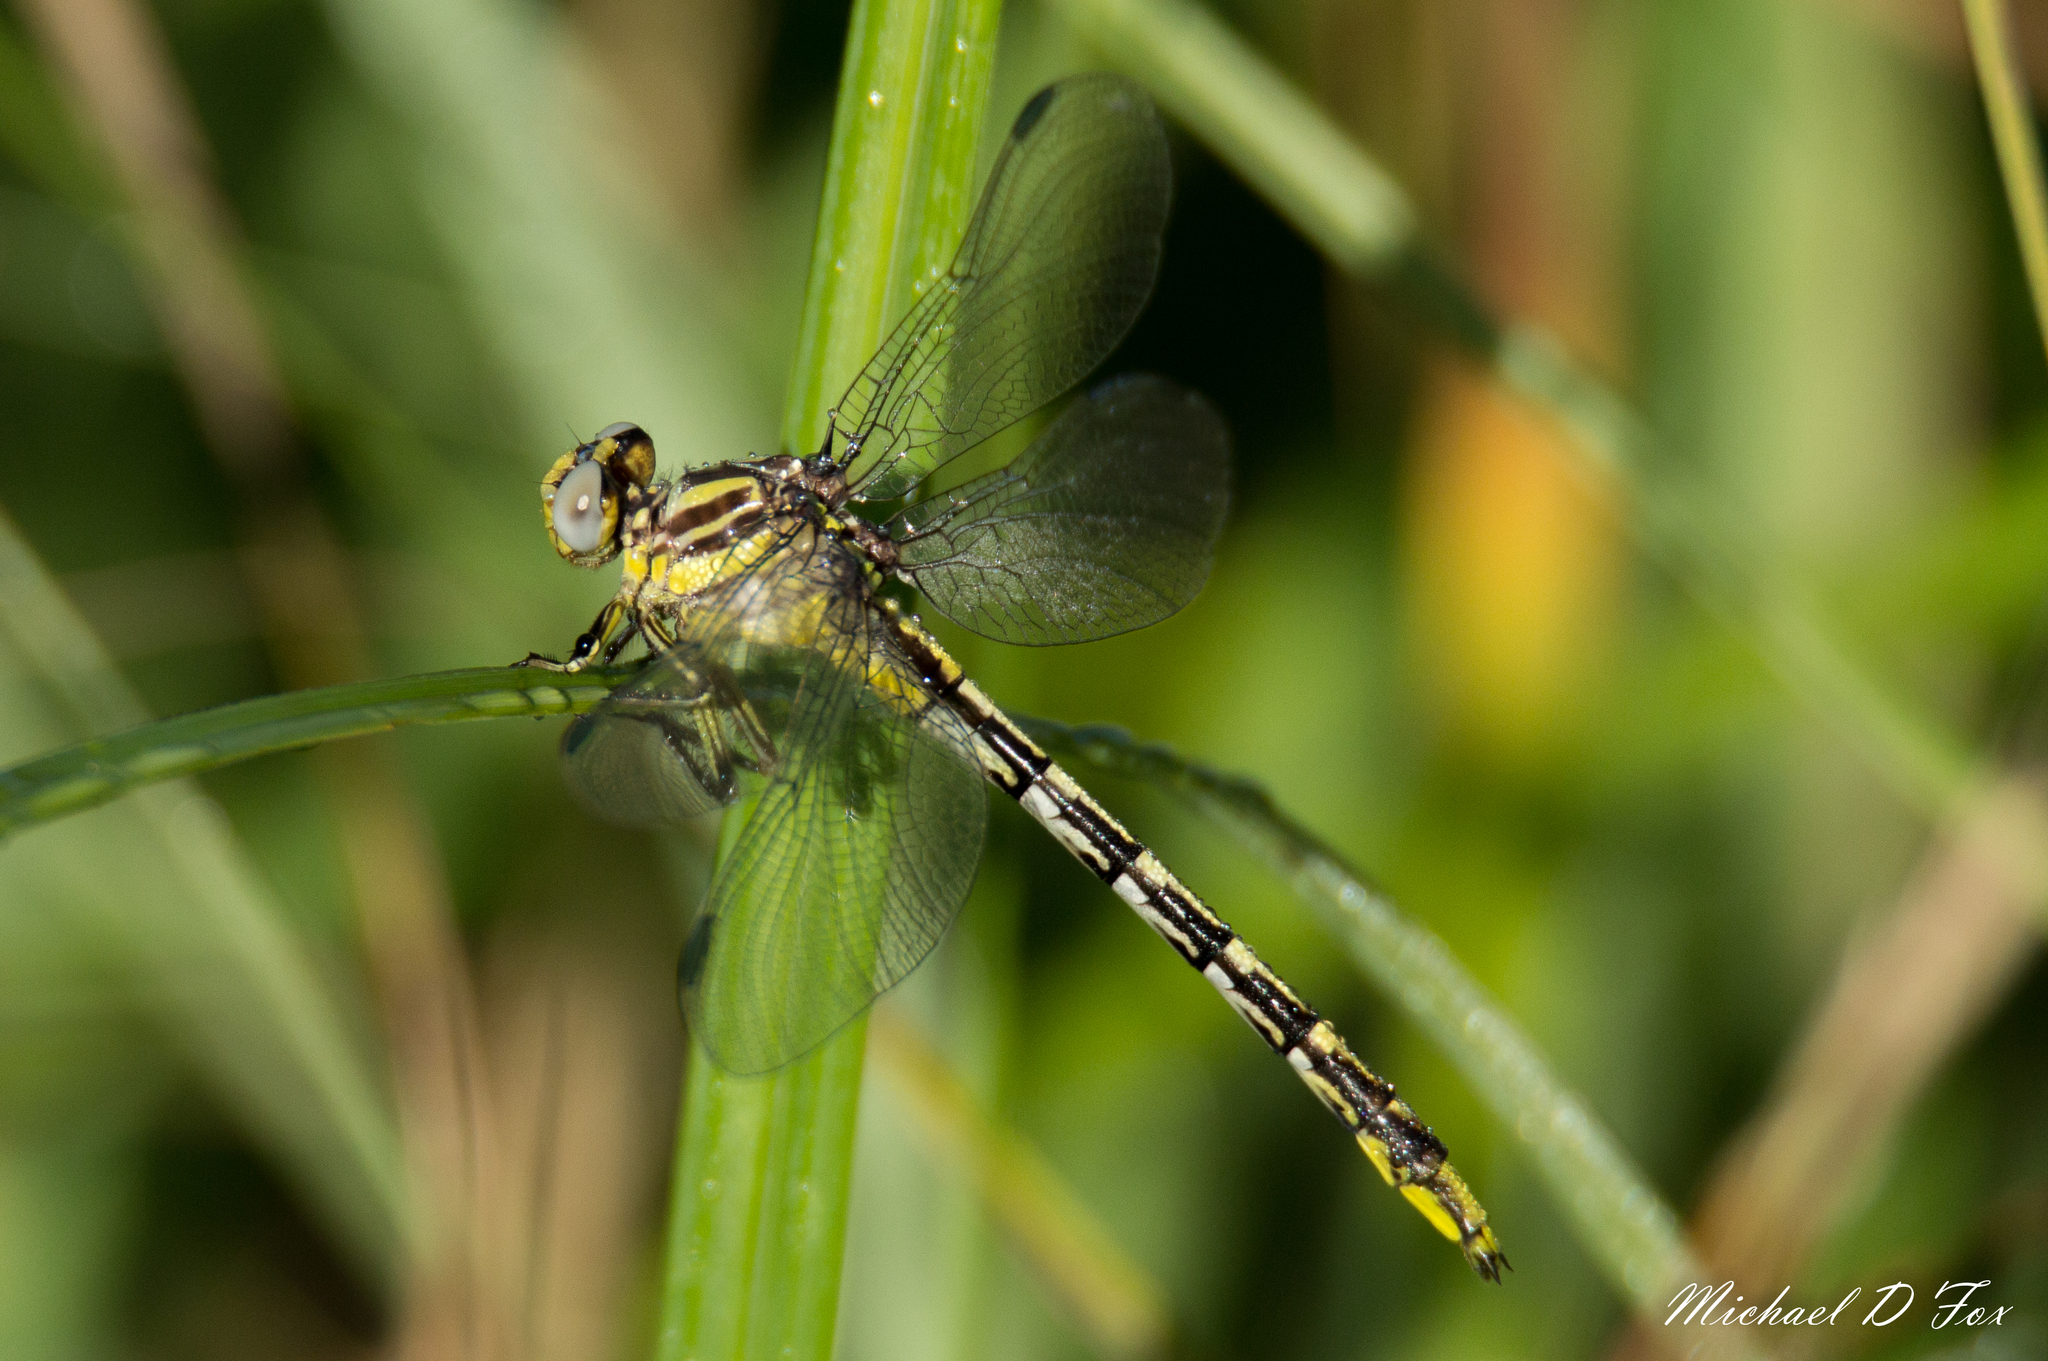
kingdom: Animalia
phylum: Arthropoda
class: Insecta
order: Odonata
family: Gomphidae
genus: Phanogomphus
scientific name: Phanogomphus militaris
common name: Sulphur-tipped clubtail
